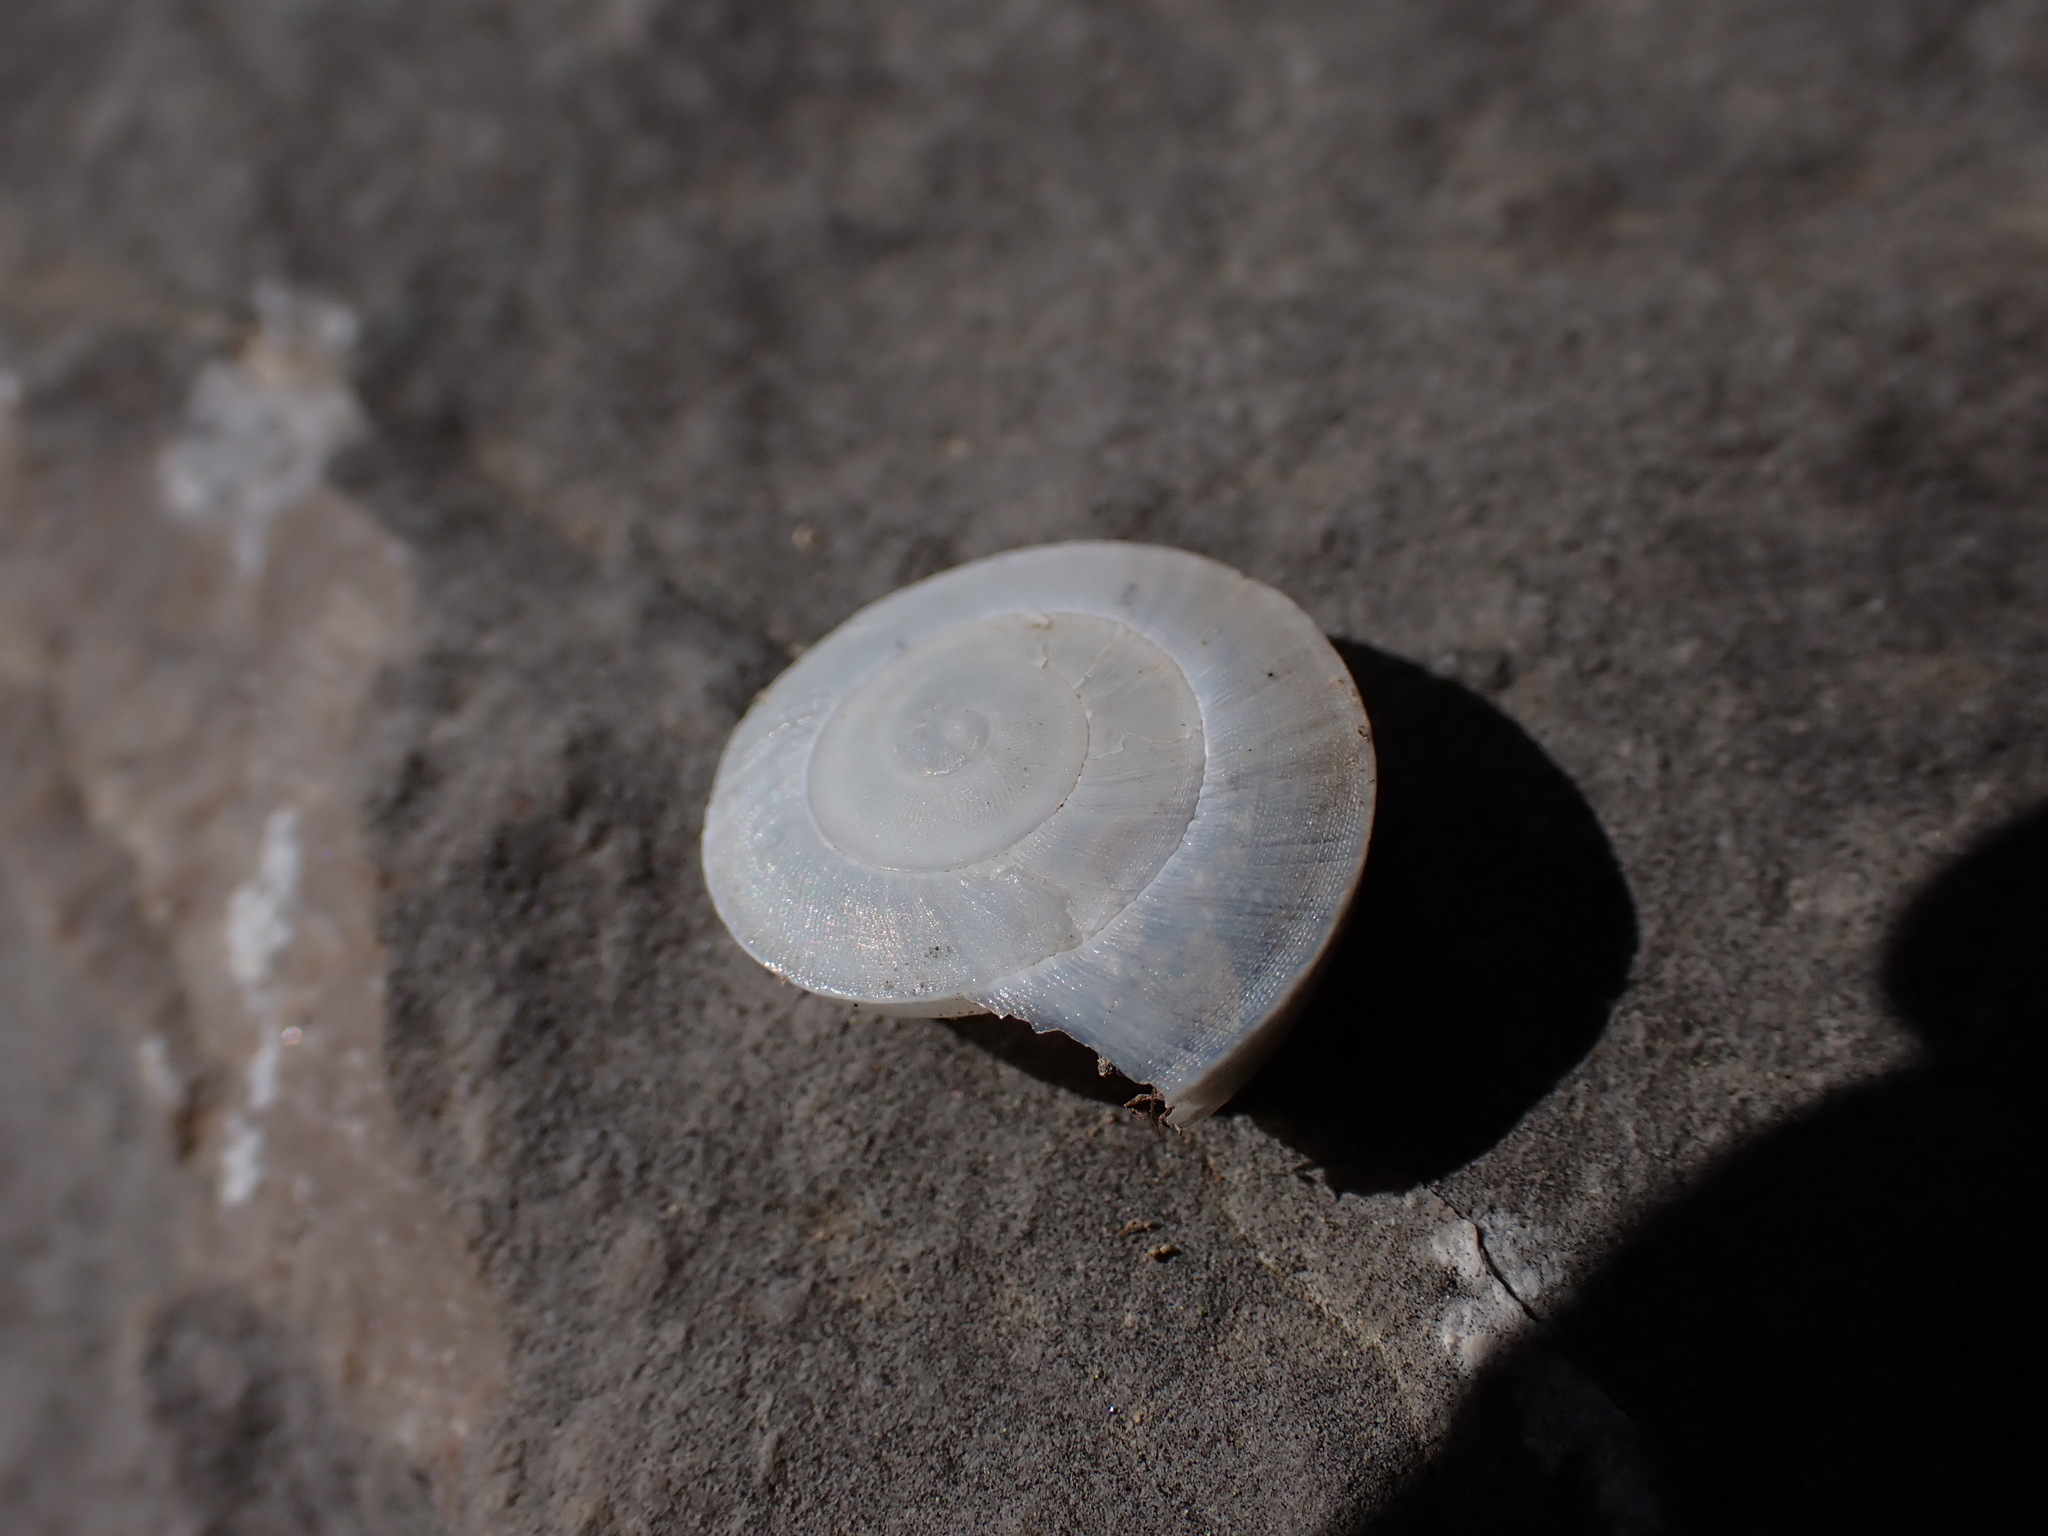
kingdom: Animalia
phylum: Mollusca
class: Gastropoda
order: Stylommatophora
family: Zonitidae
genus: Zonites
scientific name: Zonites algirus
